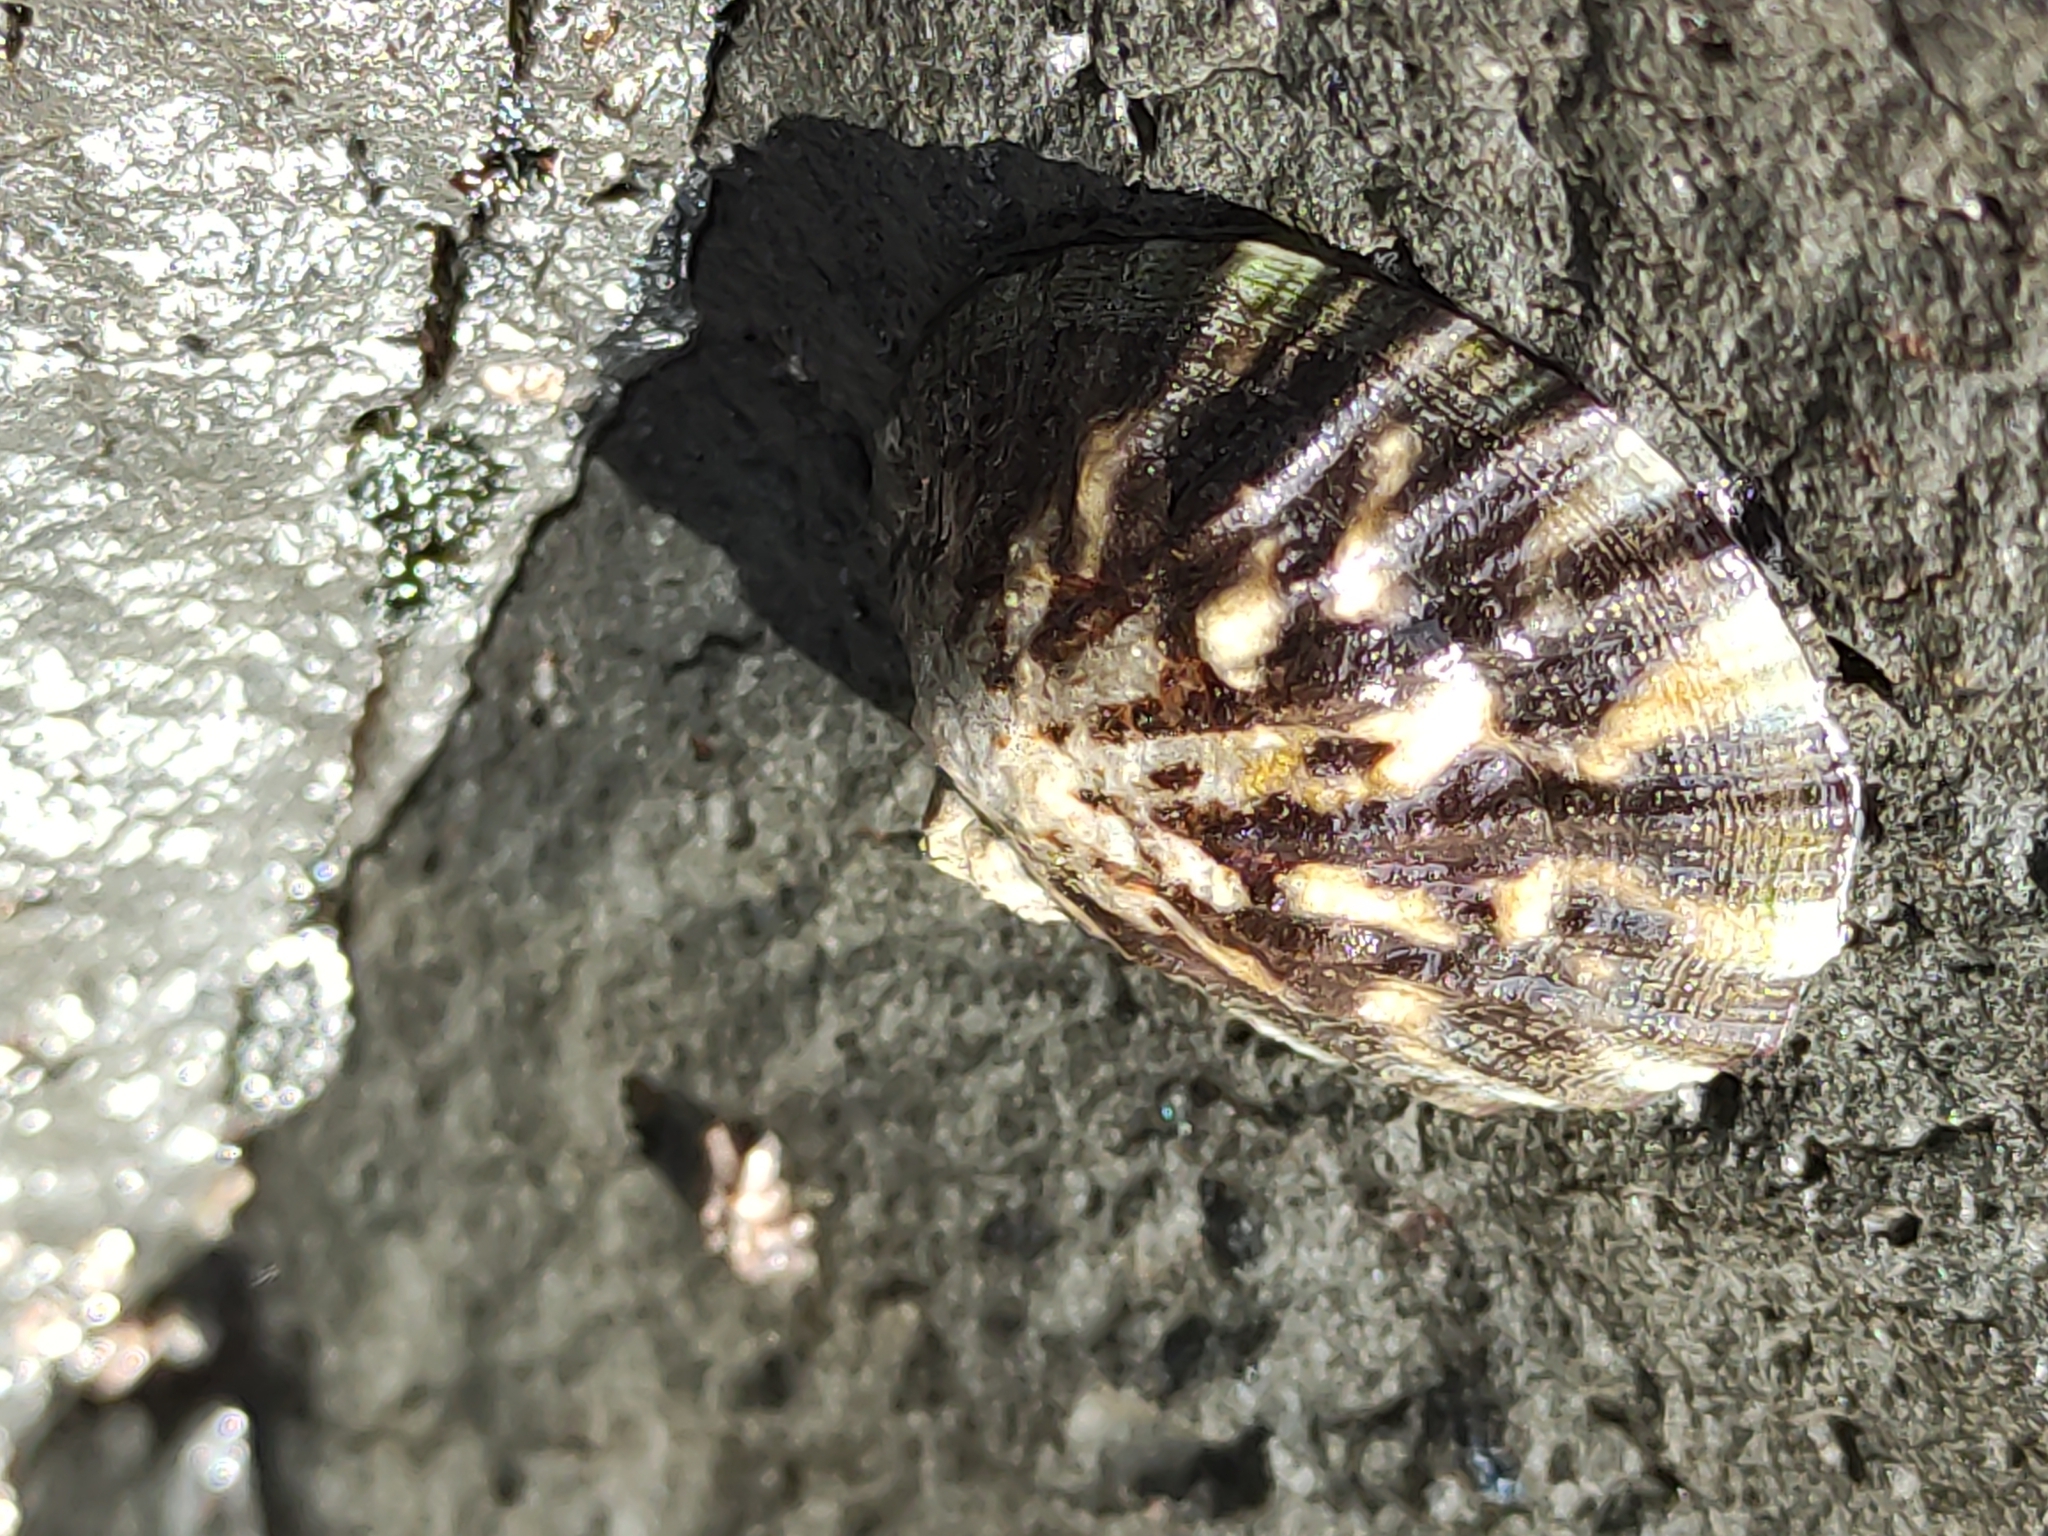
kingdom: Animalia
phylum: Mollusca
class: Gastropoda
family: Nacellidae
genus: Cellana
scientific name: Cellana radians
